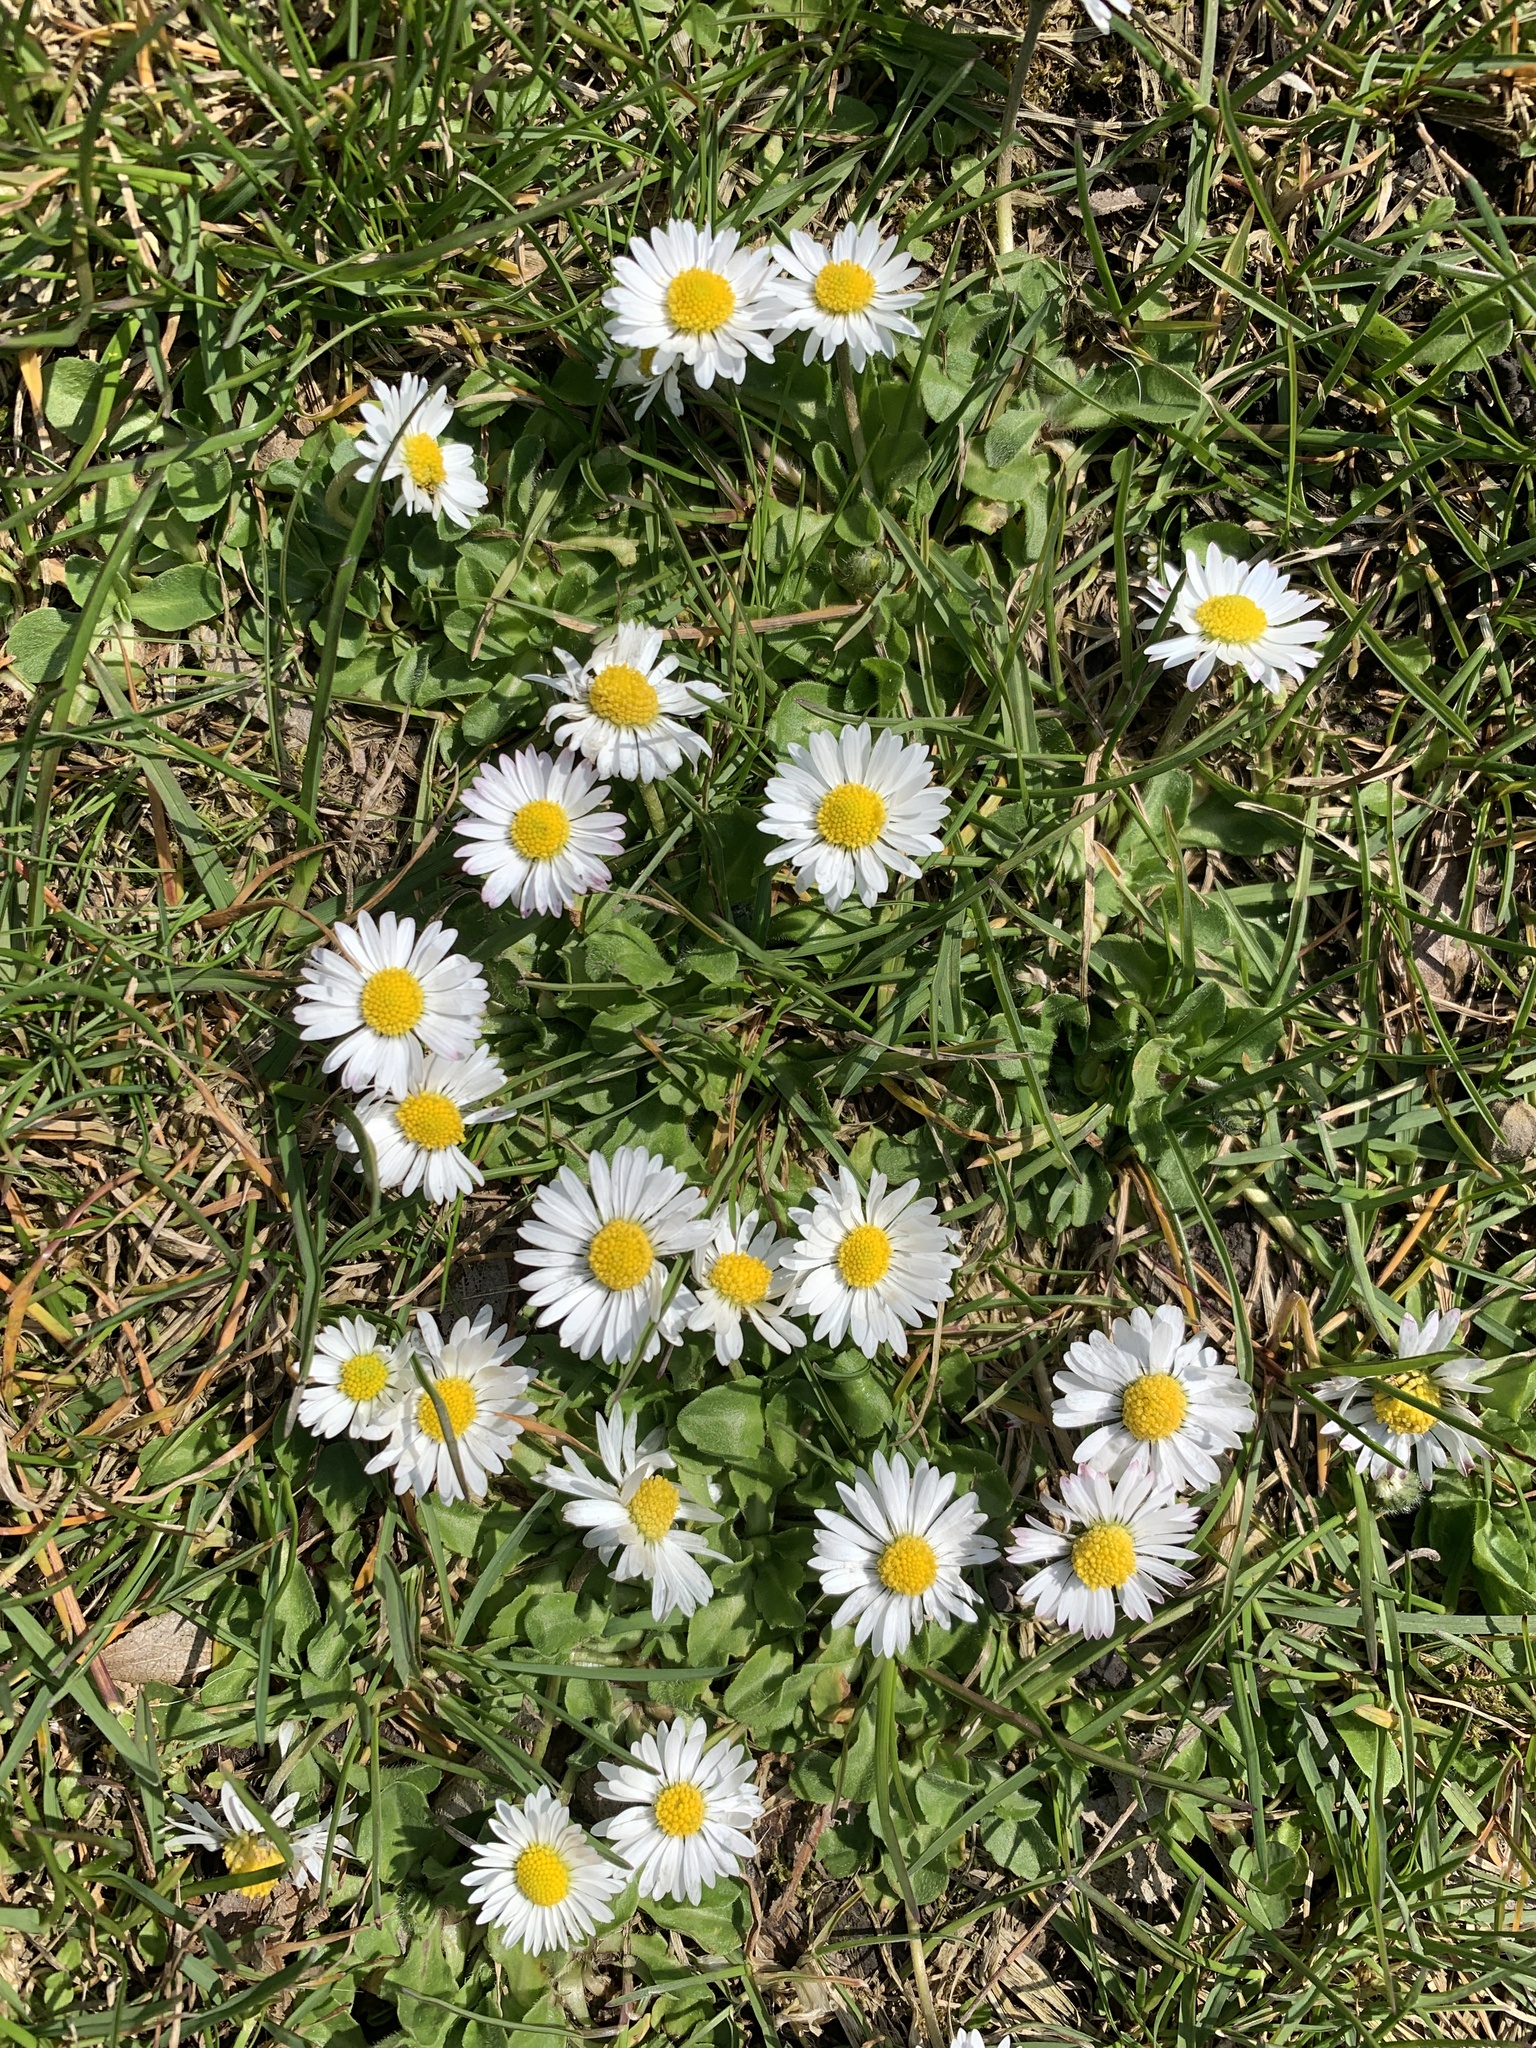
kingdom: Plantae
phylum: Tracheophyta
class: Magnoliopsida
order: Asterales
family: Asteraceae
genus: Bellis
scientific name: Bellis perennis
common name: Lawndaisy
